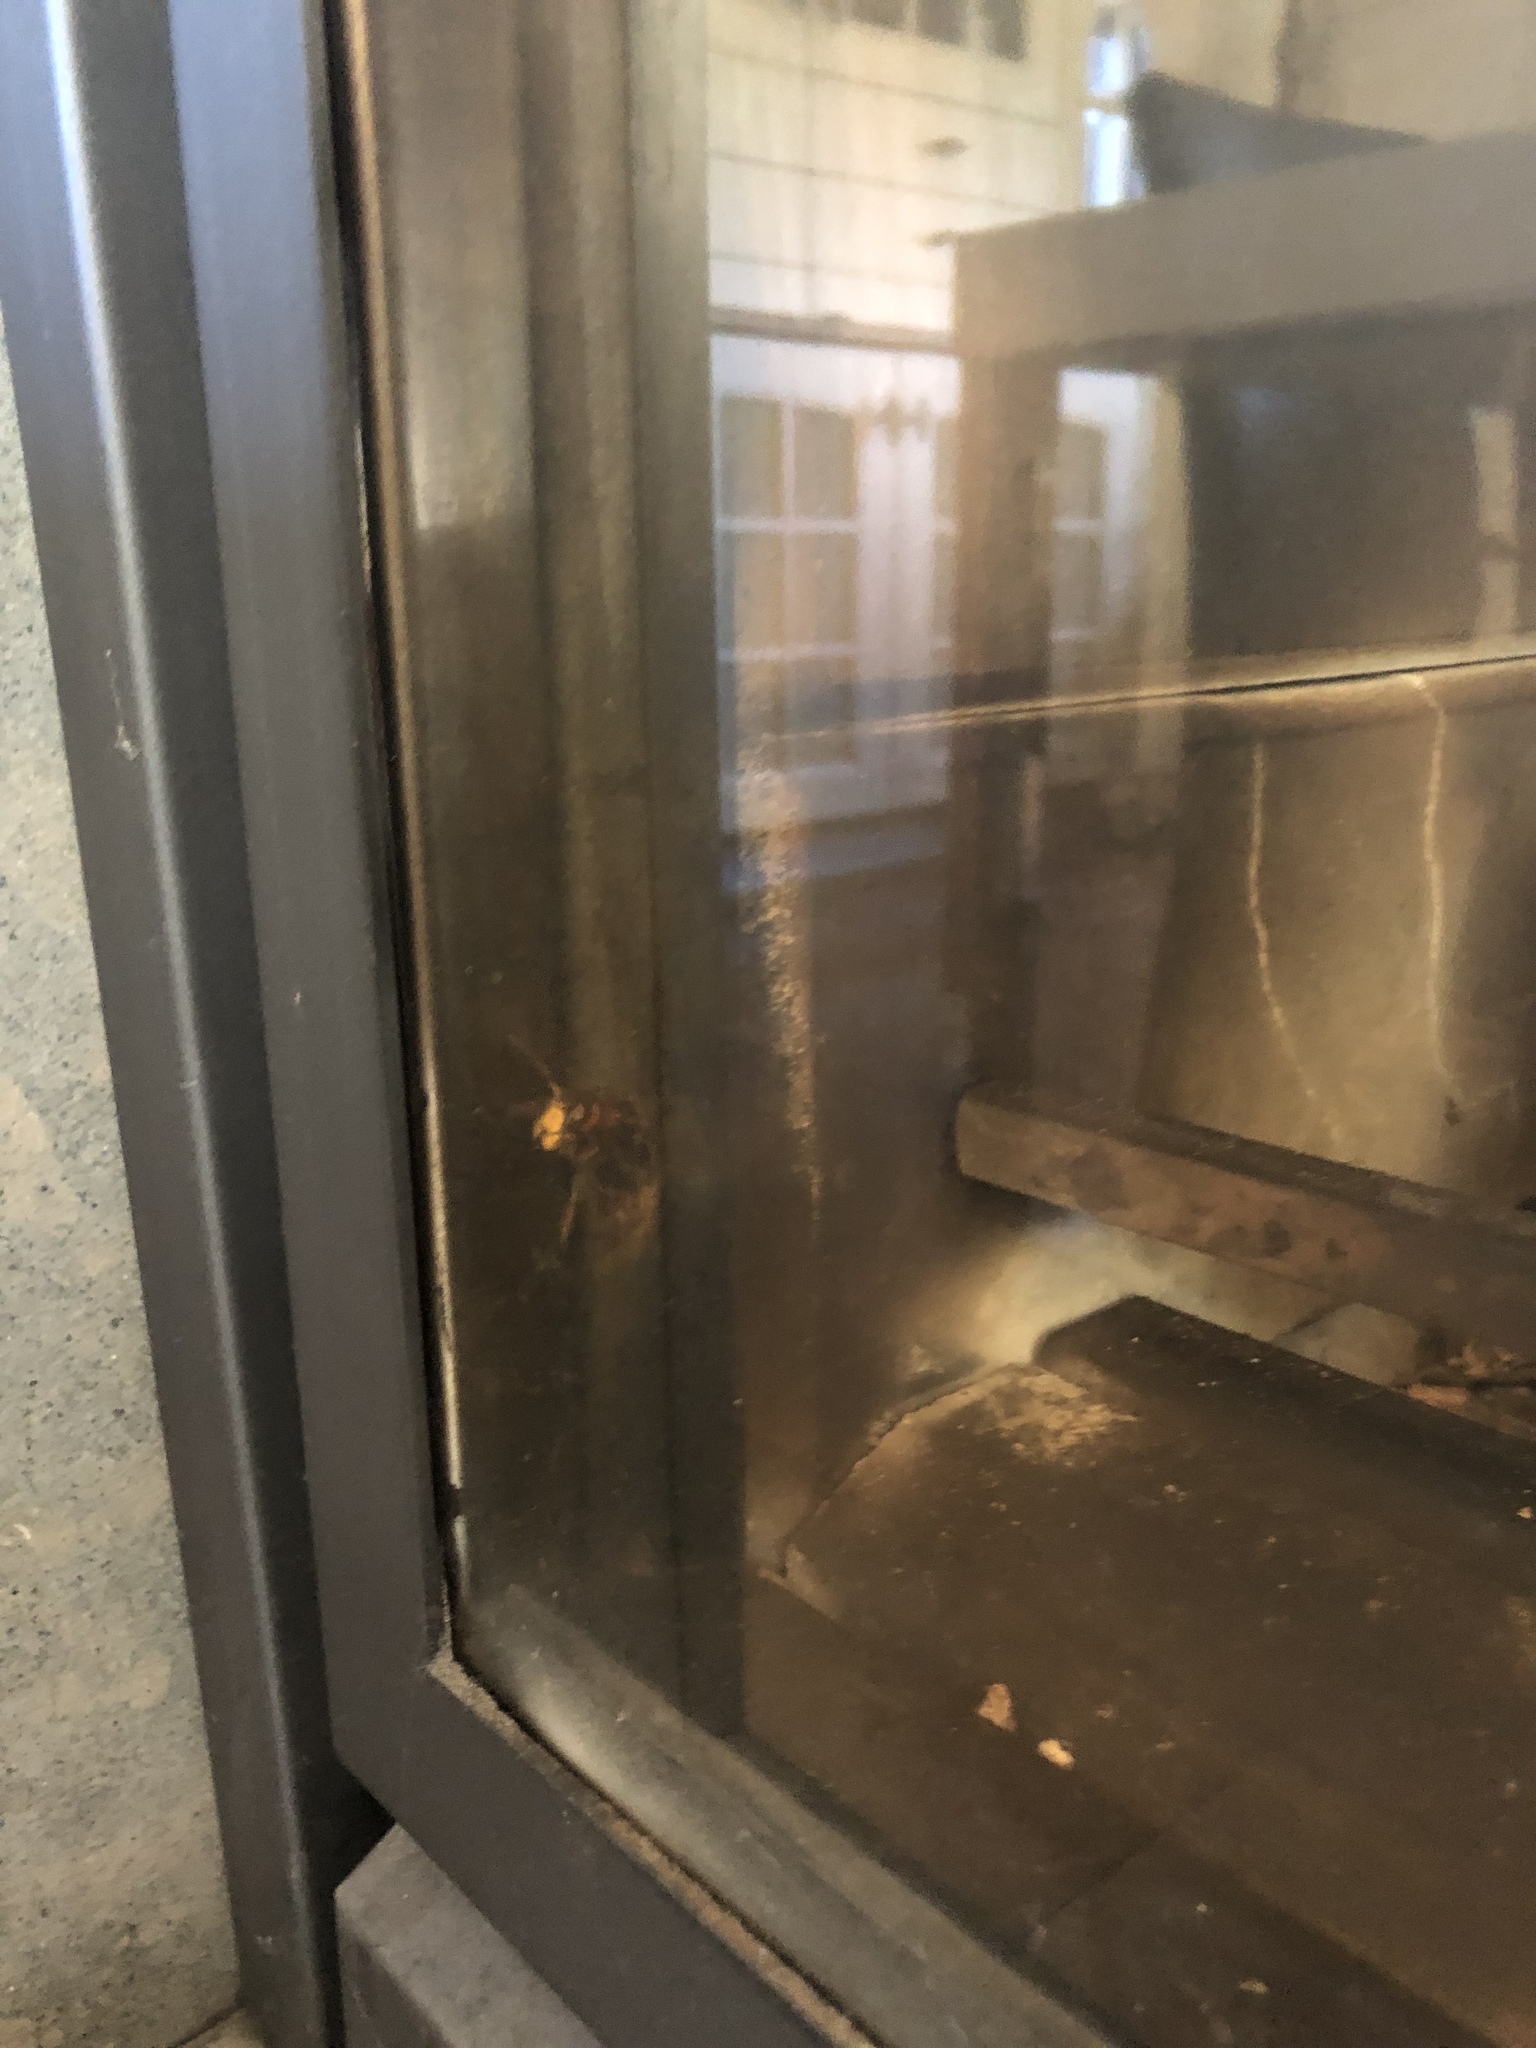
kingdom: Animalia
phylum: Arthropoda
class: Insecta
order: Hymenoptera
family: Vespidae
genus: Vespa
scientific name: Vespa crabro
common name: Hornet
